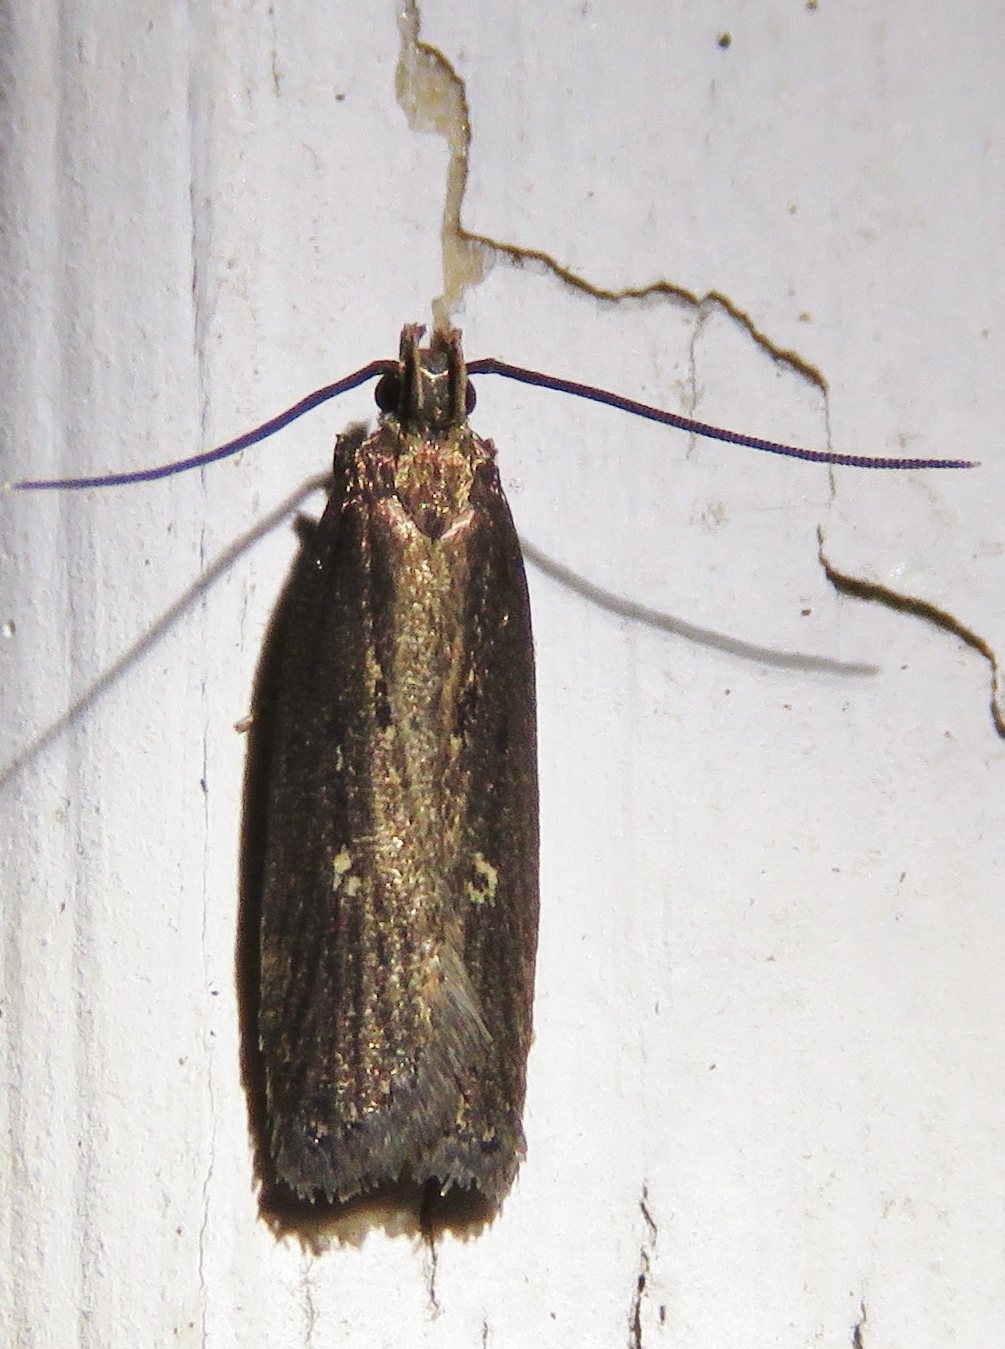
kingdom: Animalia
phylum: Arthropoda
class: Insecta
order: Lepidoptera
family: Gelechiidae
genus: Chionodes
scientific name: Chionodes discoocellella
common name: Eye-ringed chionodes moth
